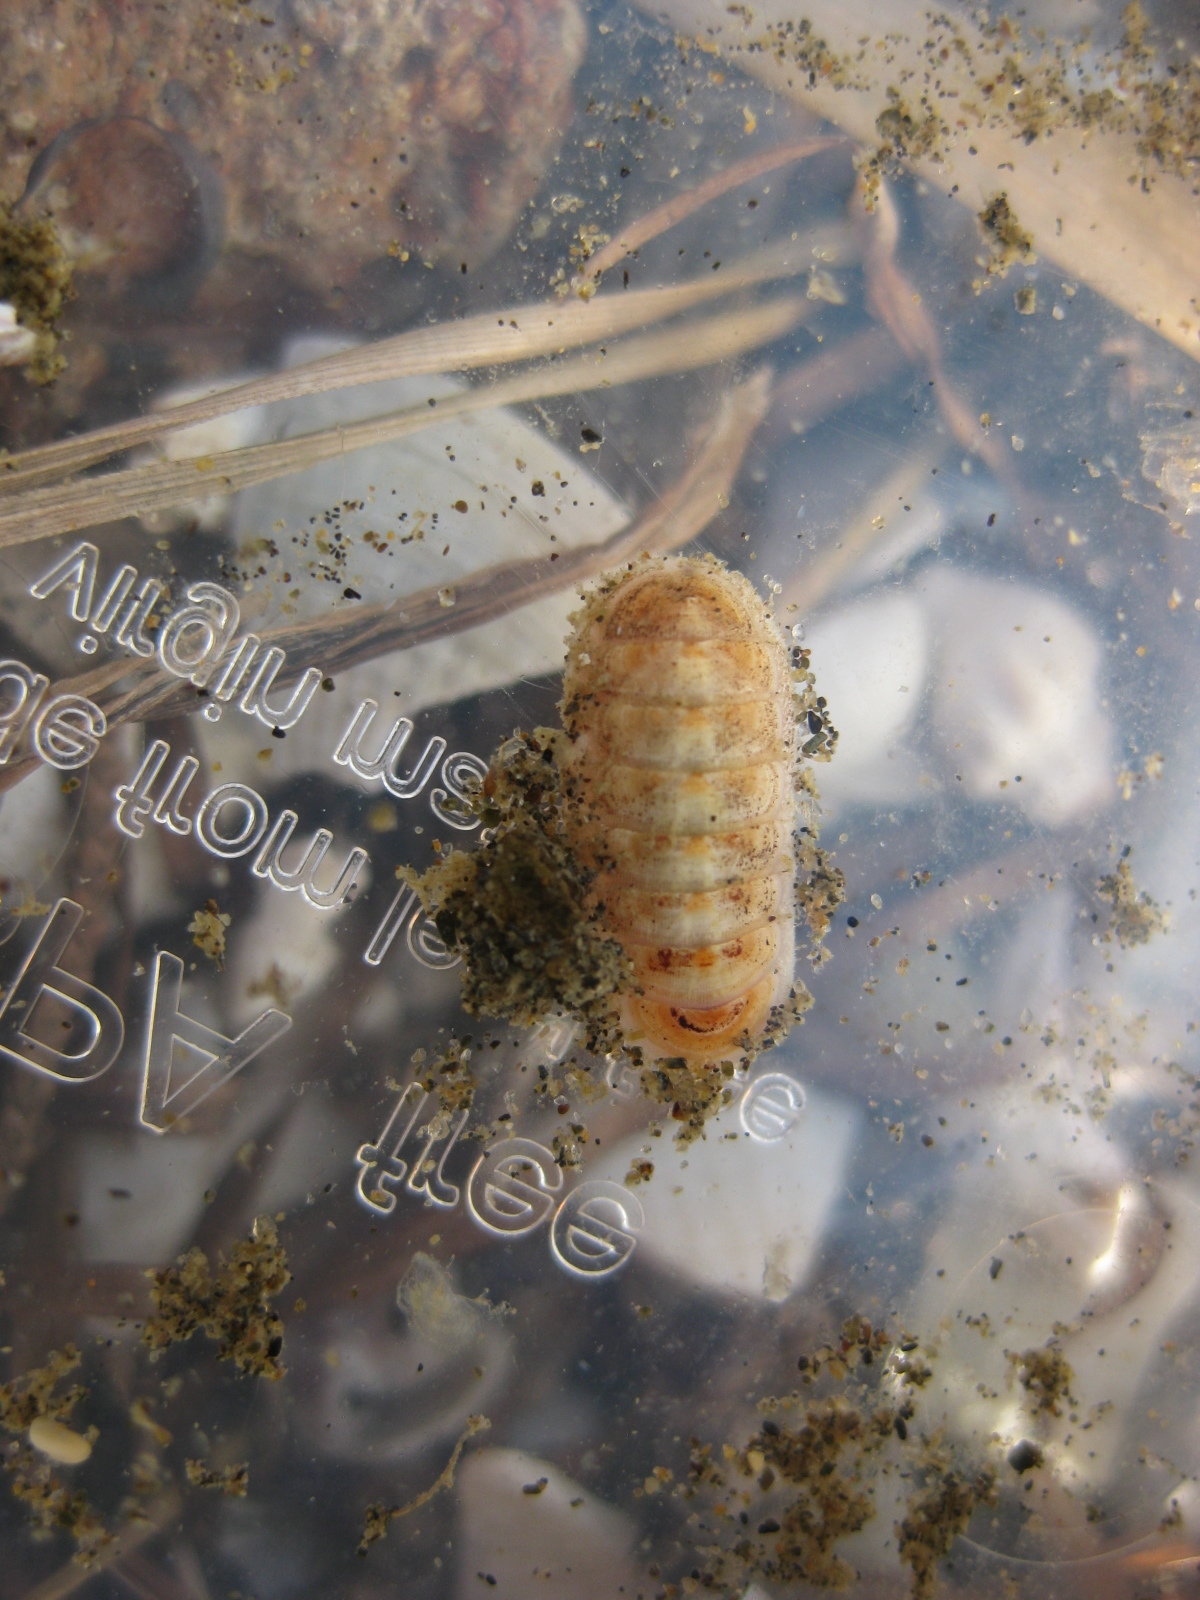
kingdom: Animalia
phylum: Mollusca
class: Polyplacophora
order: Lepidopleurida
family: Leptochitonidae
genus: Leptochiton
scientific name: Leptochiton inquinatus
